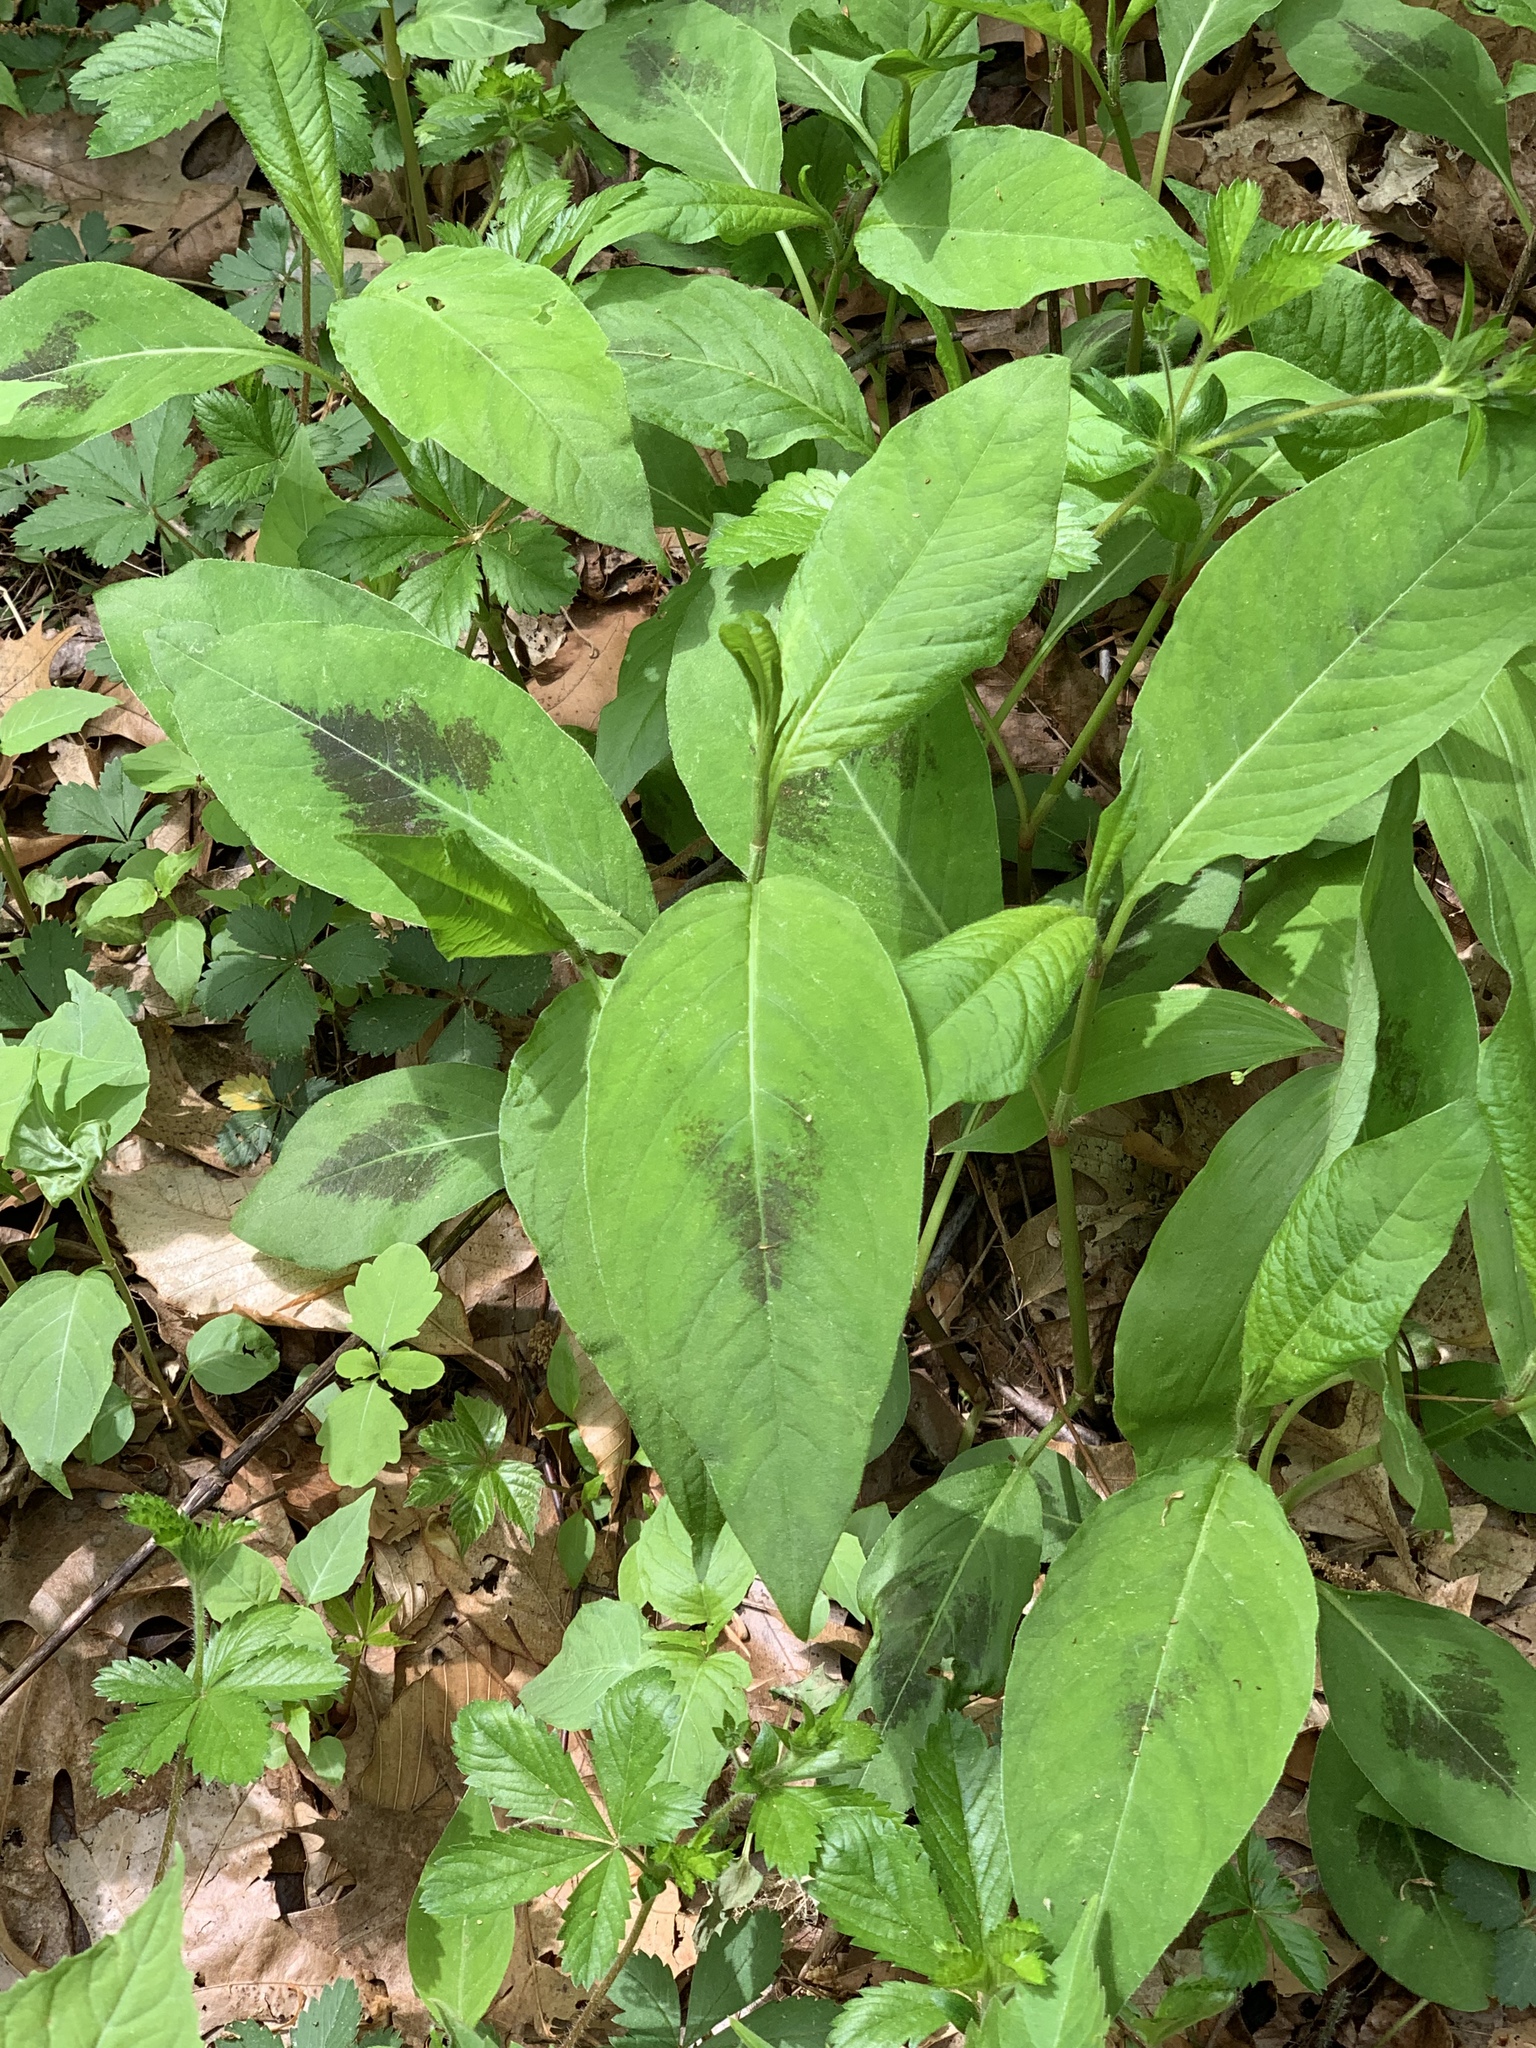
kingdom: Plantae
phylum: Tracheophyta
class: Magnoliopsida
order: Caryophyllales
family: Polygonaceae
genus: Persicaria
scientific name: Persicaria virginiana
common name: Jumpseed
